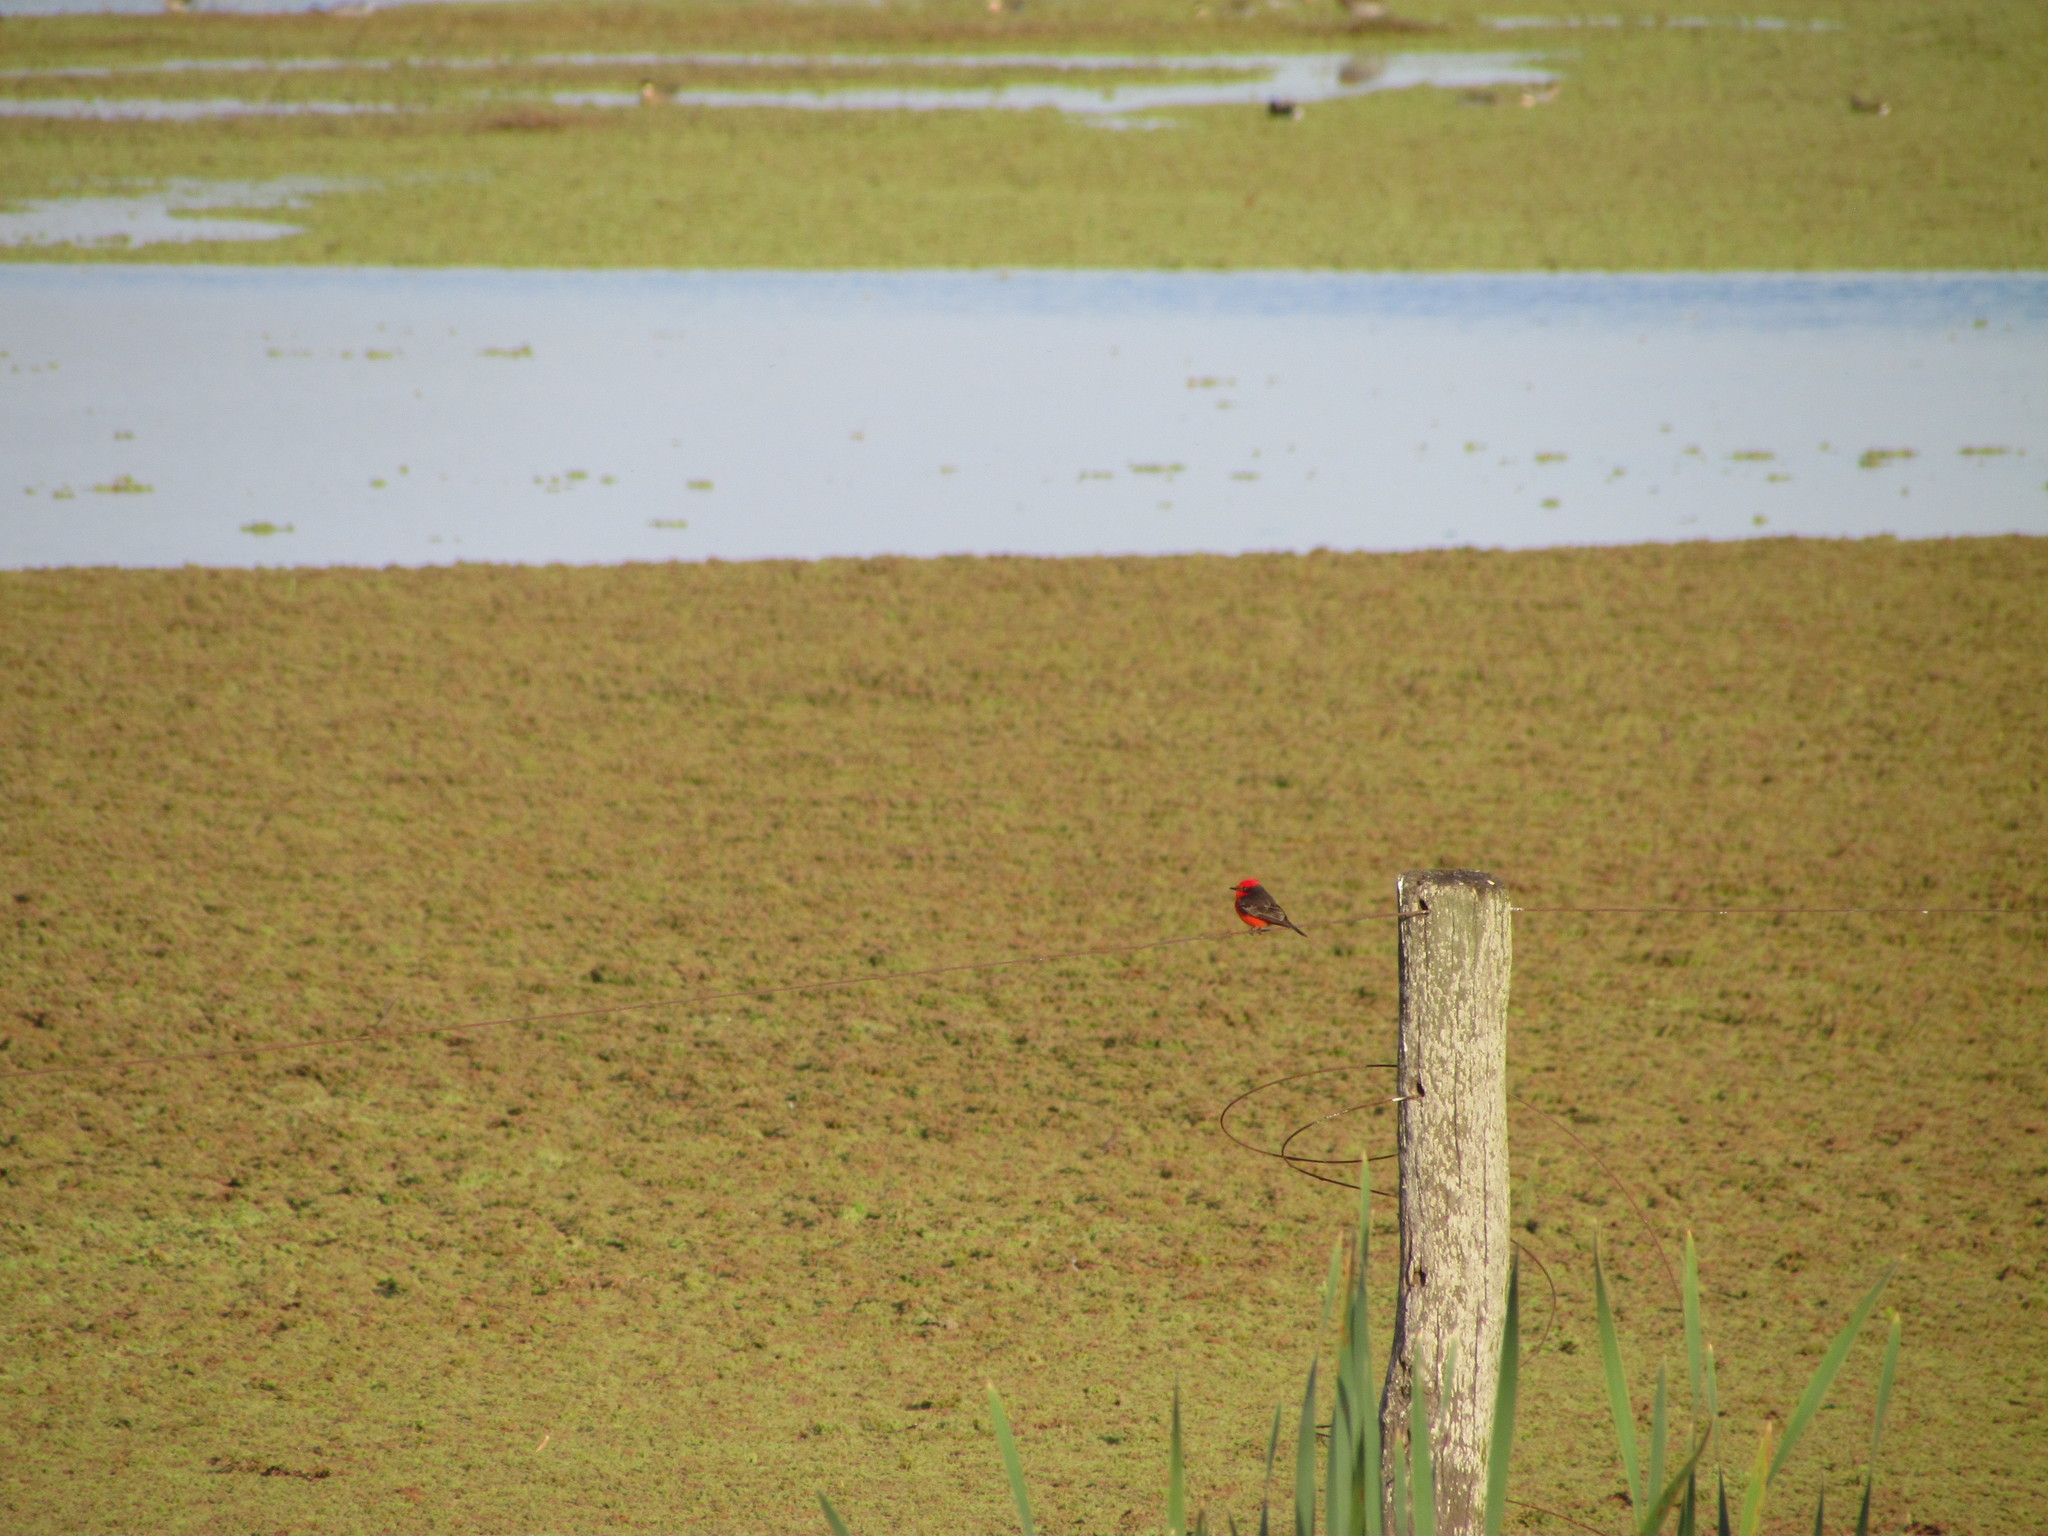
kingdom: Animalia
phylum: Chordata
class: Aves
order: Passeriformes
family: Tyrannidae
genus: Pyrocephalus
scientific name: Pyrocephalus rubinus
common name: Vermilion flycatcher
